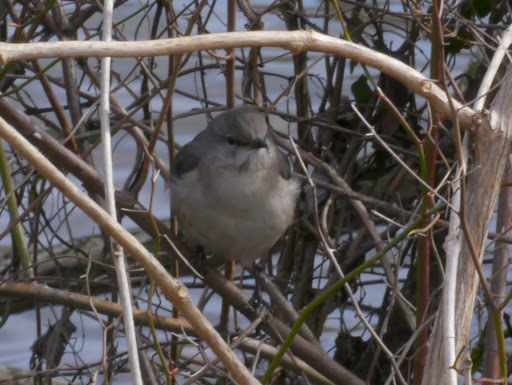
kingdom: Animalia
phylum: Chordata
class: Aves
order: Passeriformes
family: Mimidae
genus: Mimus
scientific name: Mimus polyglottos
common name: Northern mockingbird
